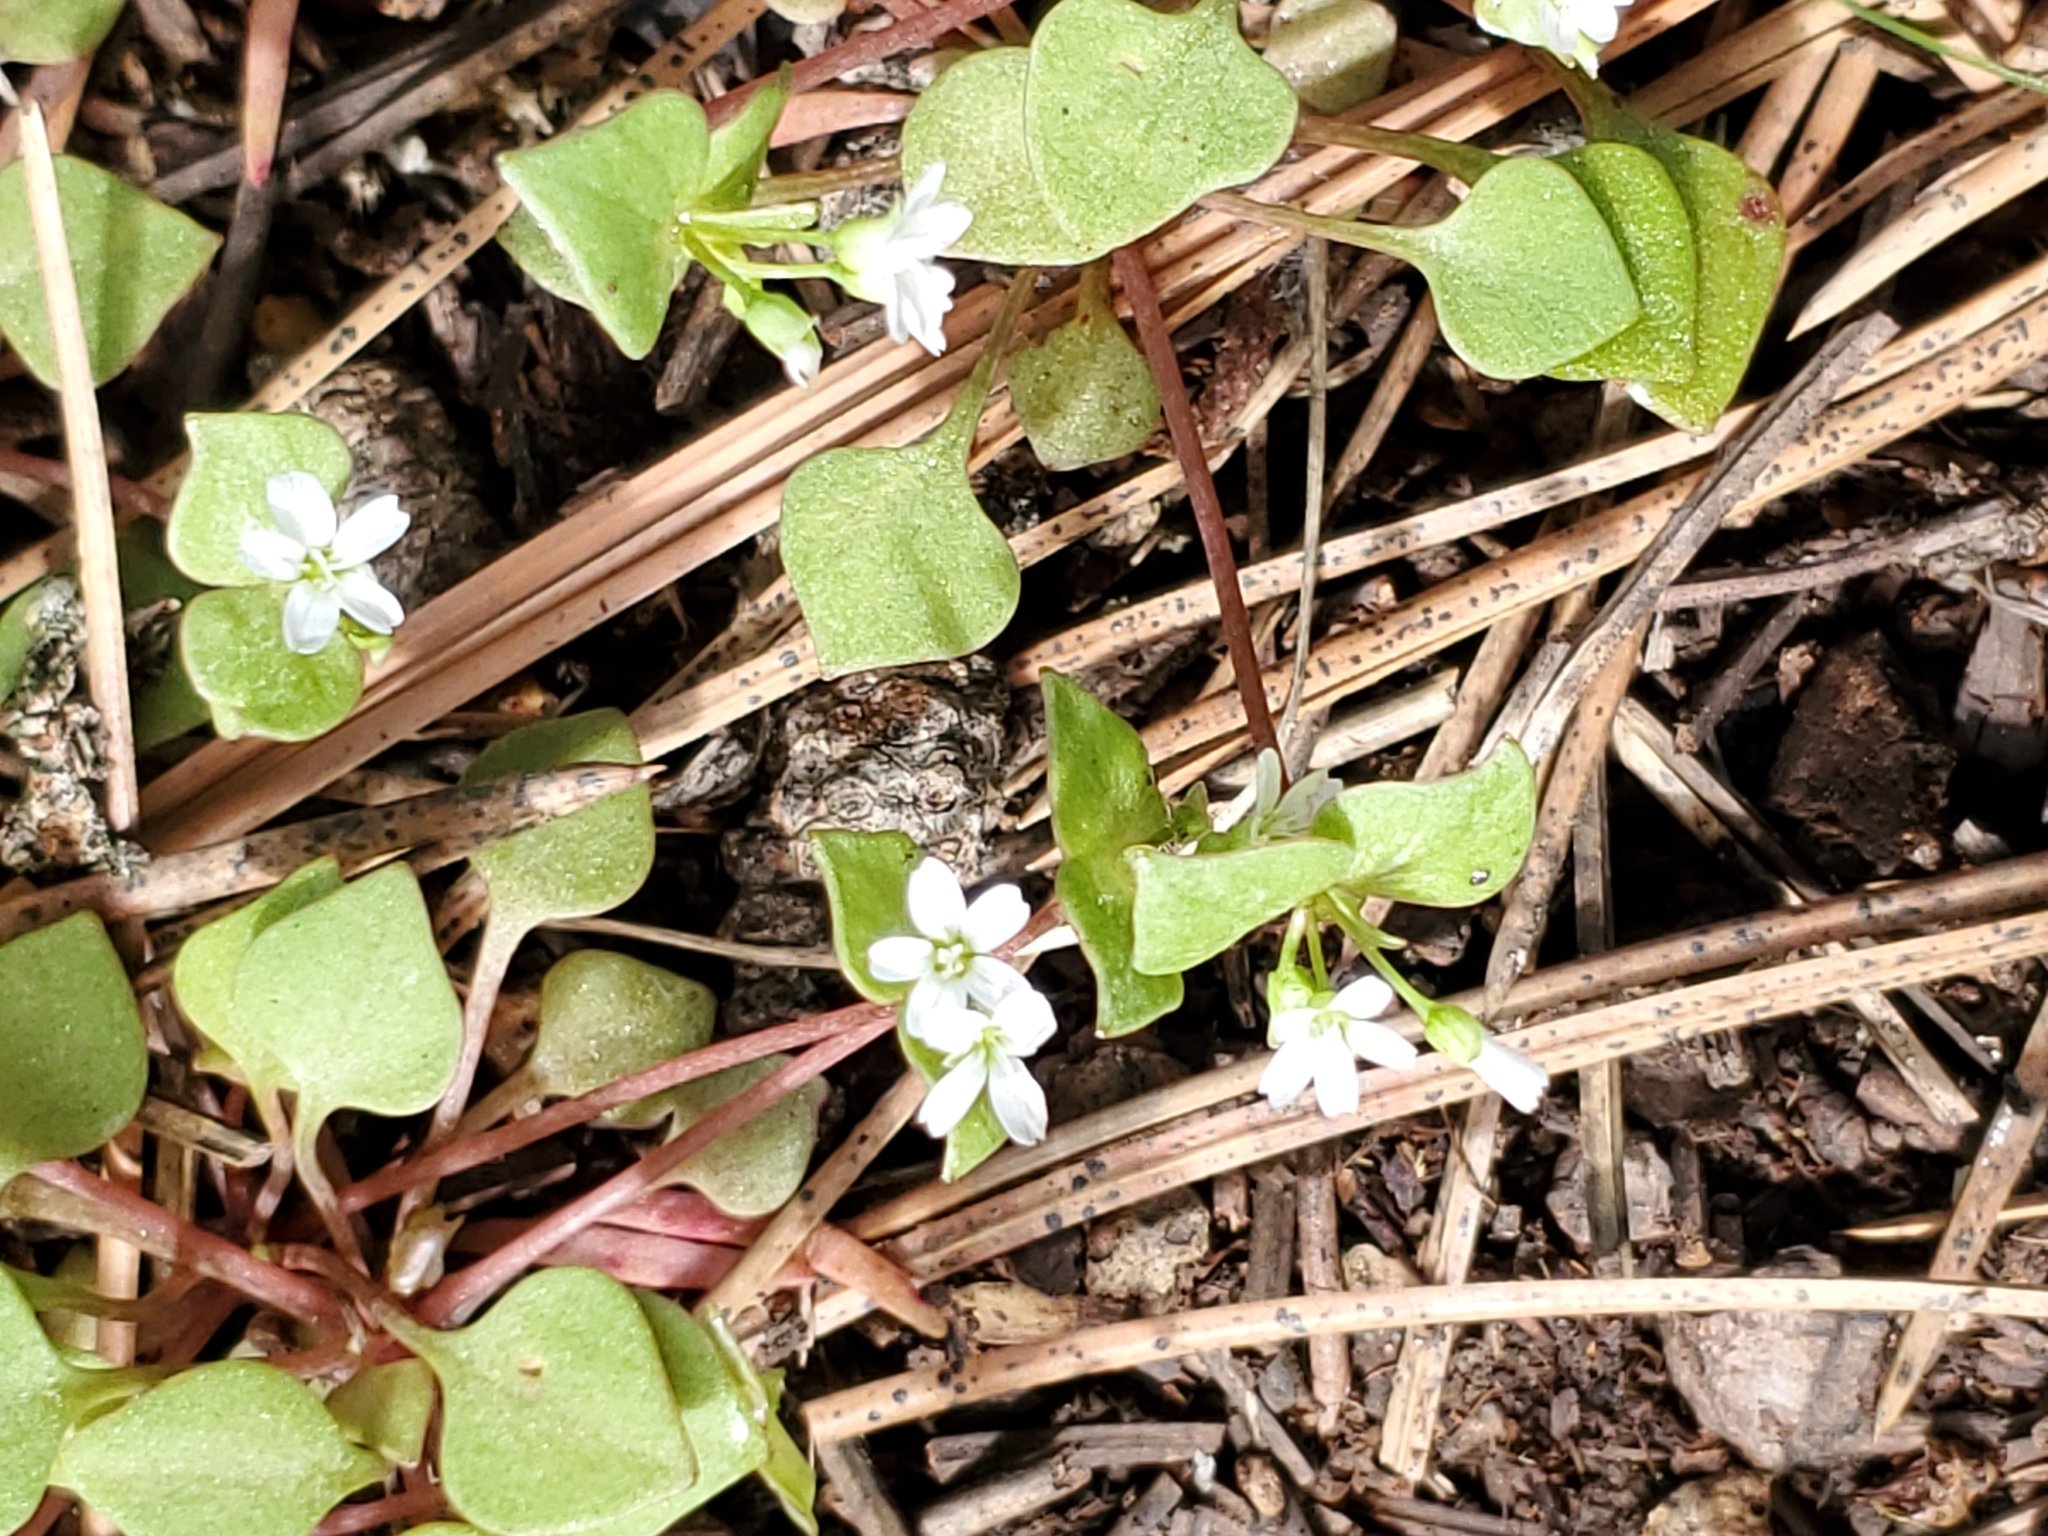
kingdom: Plantae
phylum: Tracheophyta
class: Magnoliopsida
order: Caryophyllales
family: Montiaceae
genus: Claytonia
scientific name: Claytonia rubra
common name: Erubescent miner's-lettuce
